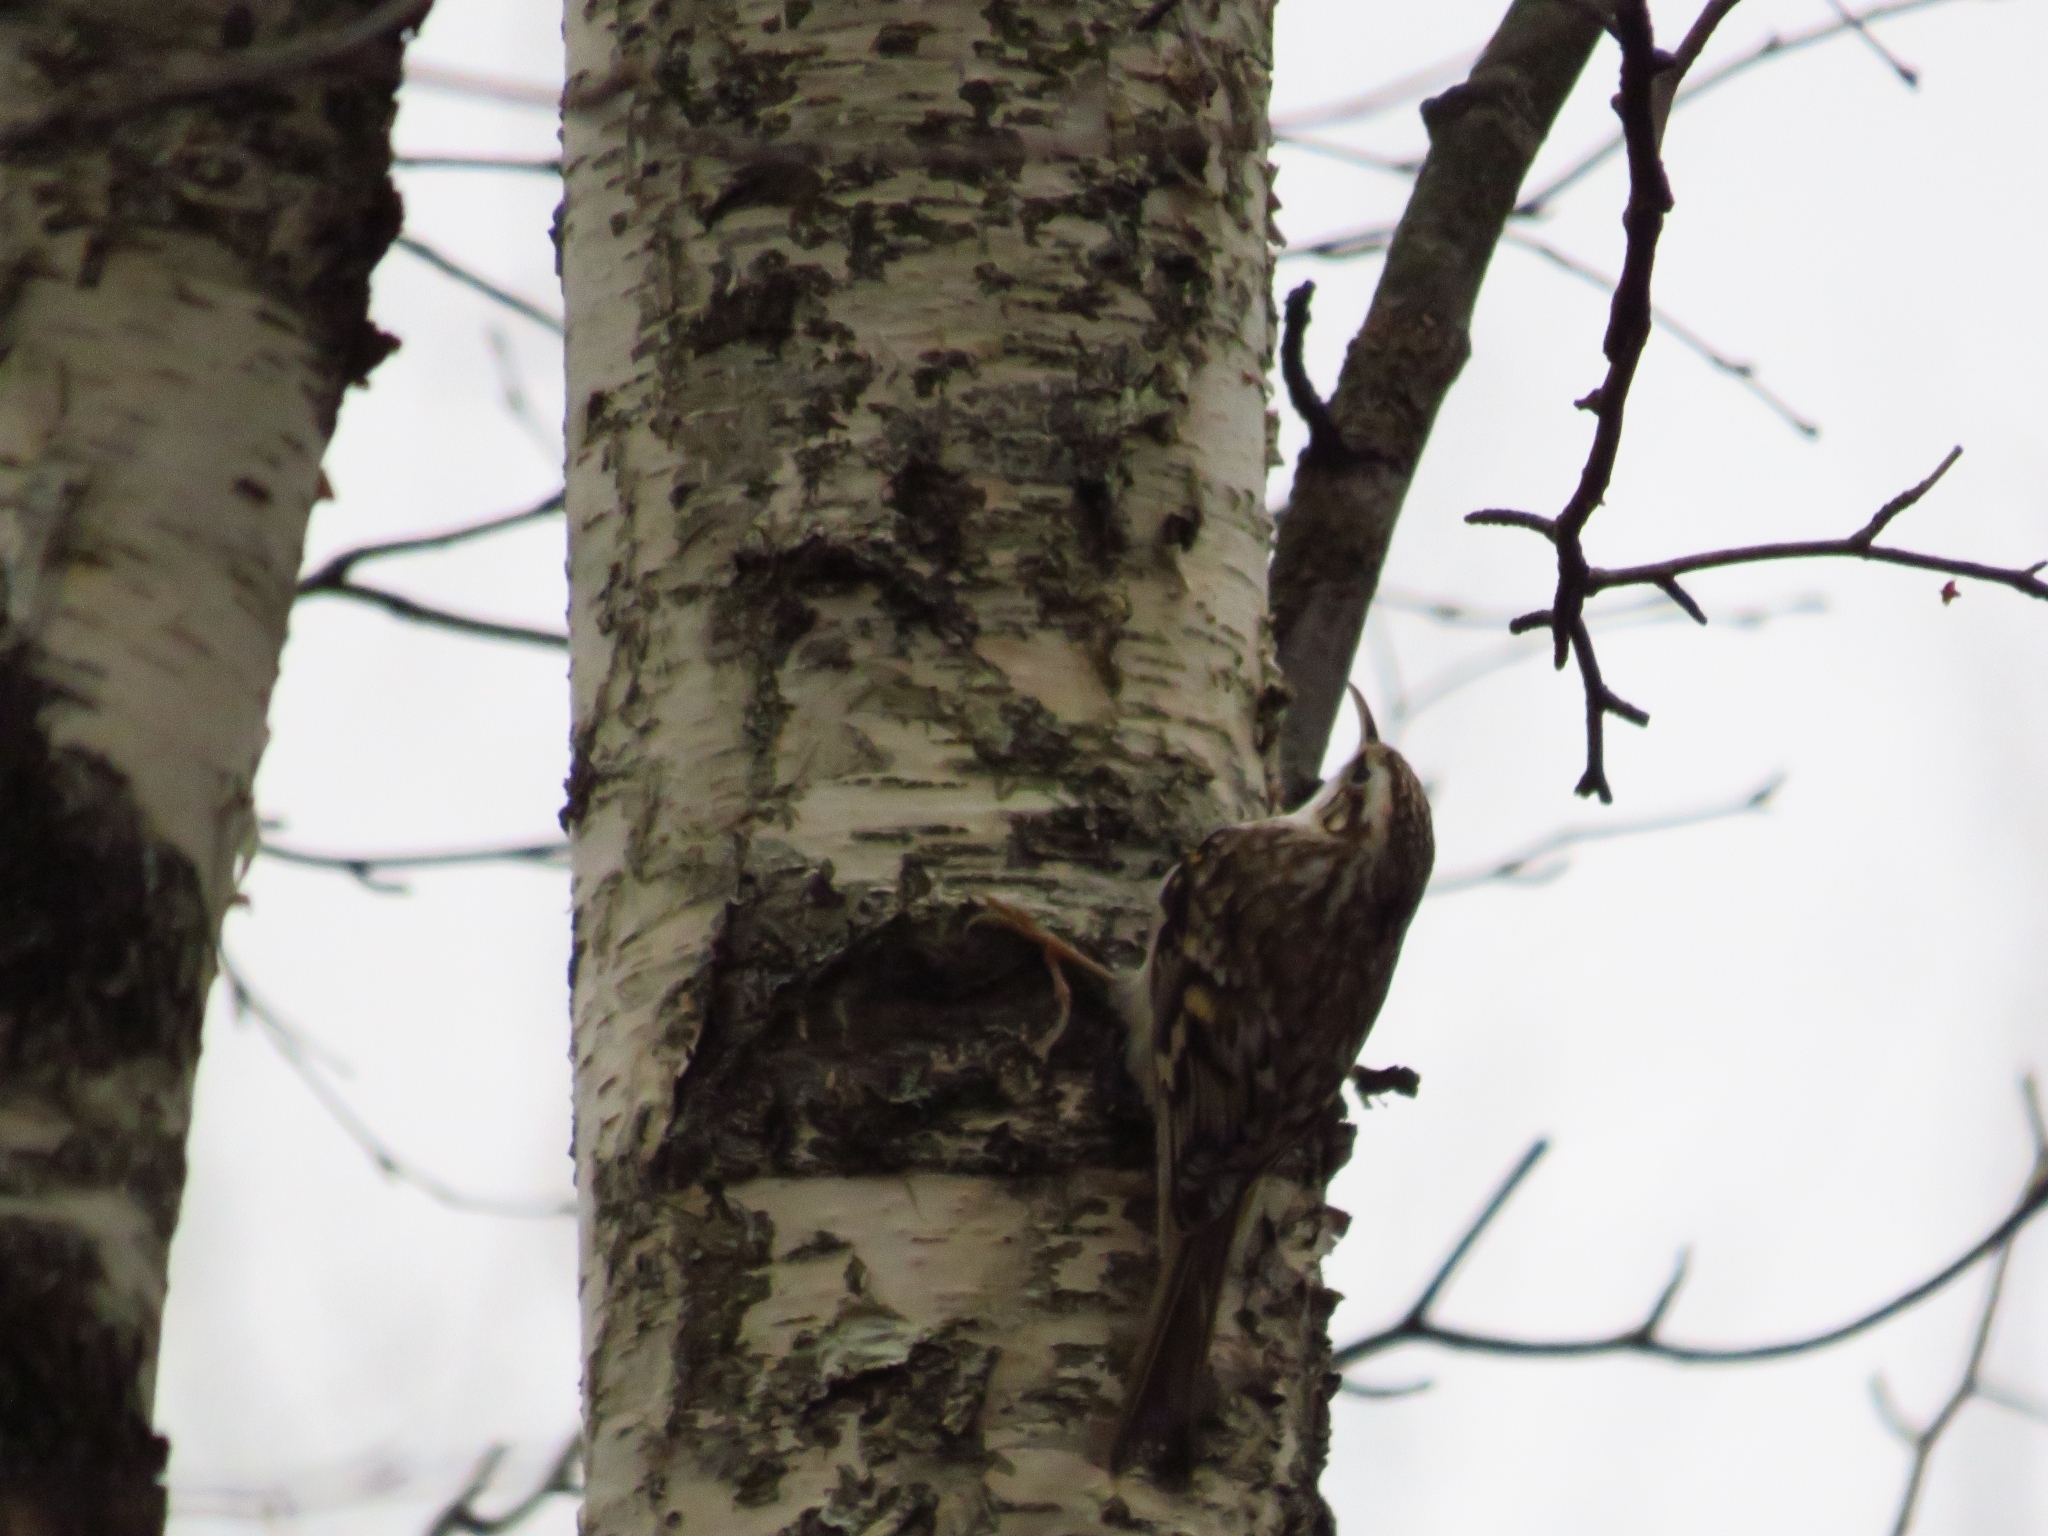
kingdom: Animalia
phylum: Chordata
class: Aves
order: Passeriformes
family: Certhiidae
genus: Certhia
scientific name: Certhia familiaris
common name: Eurasian treecreeper
